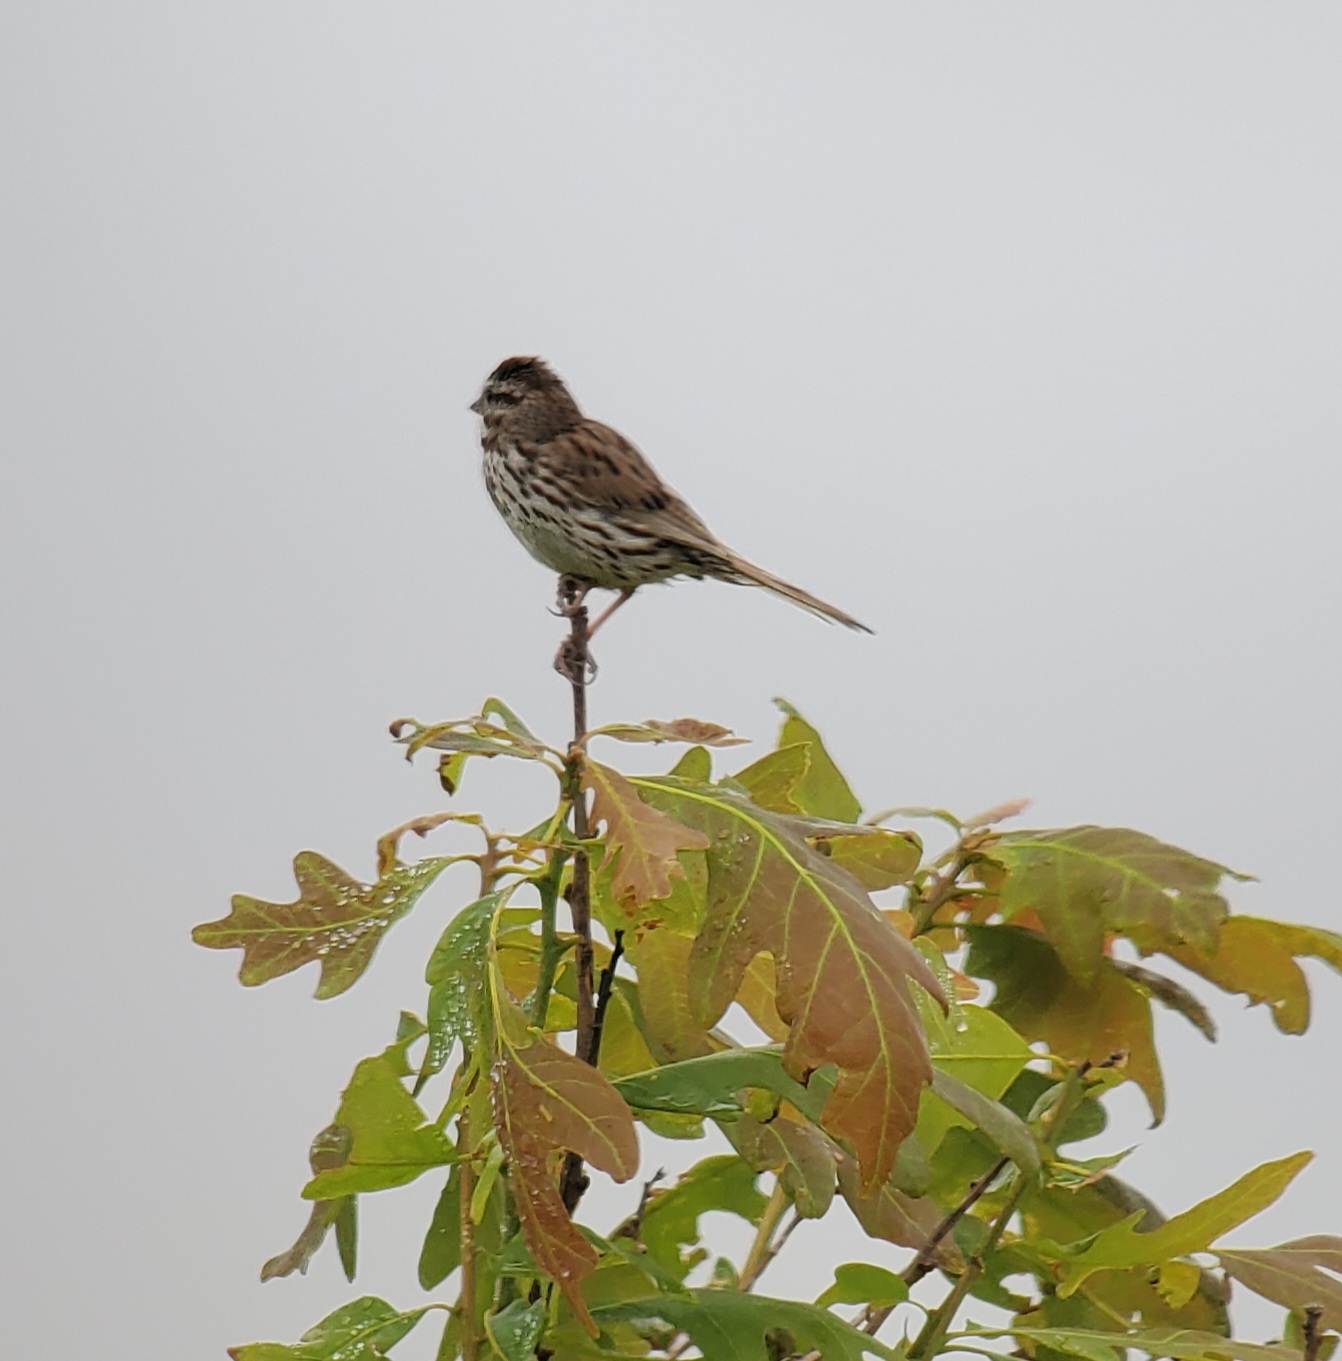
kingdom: Animalia
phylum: Chordata
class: Aves
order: Passeriformes
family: Passerellidae
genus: Melospiza
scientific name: Melospiza melodia
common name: Song sparrow
